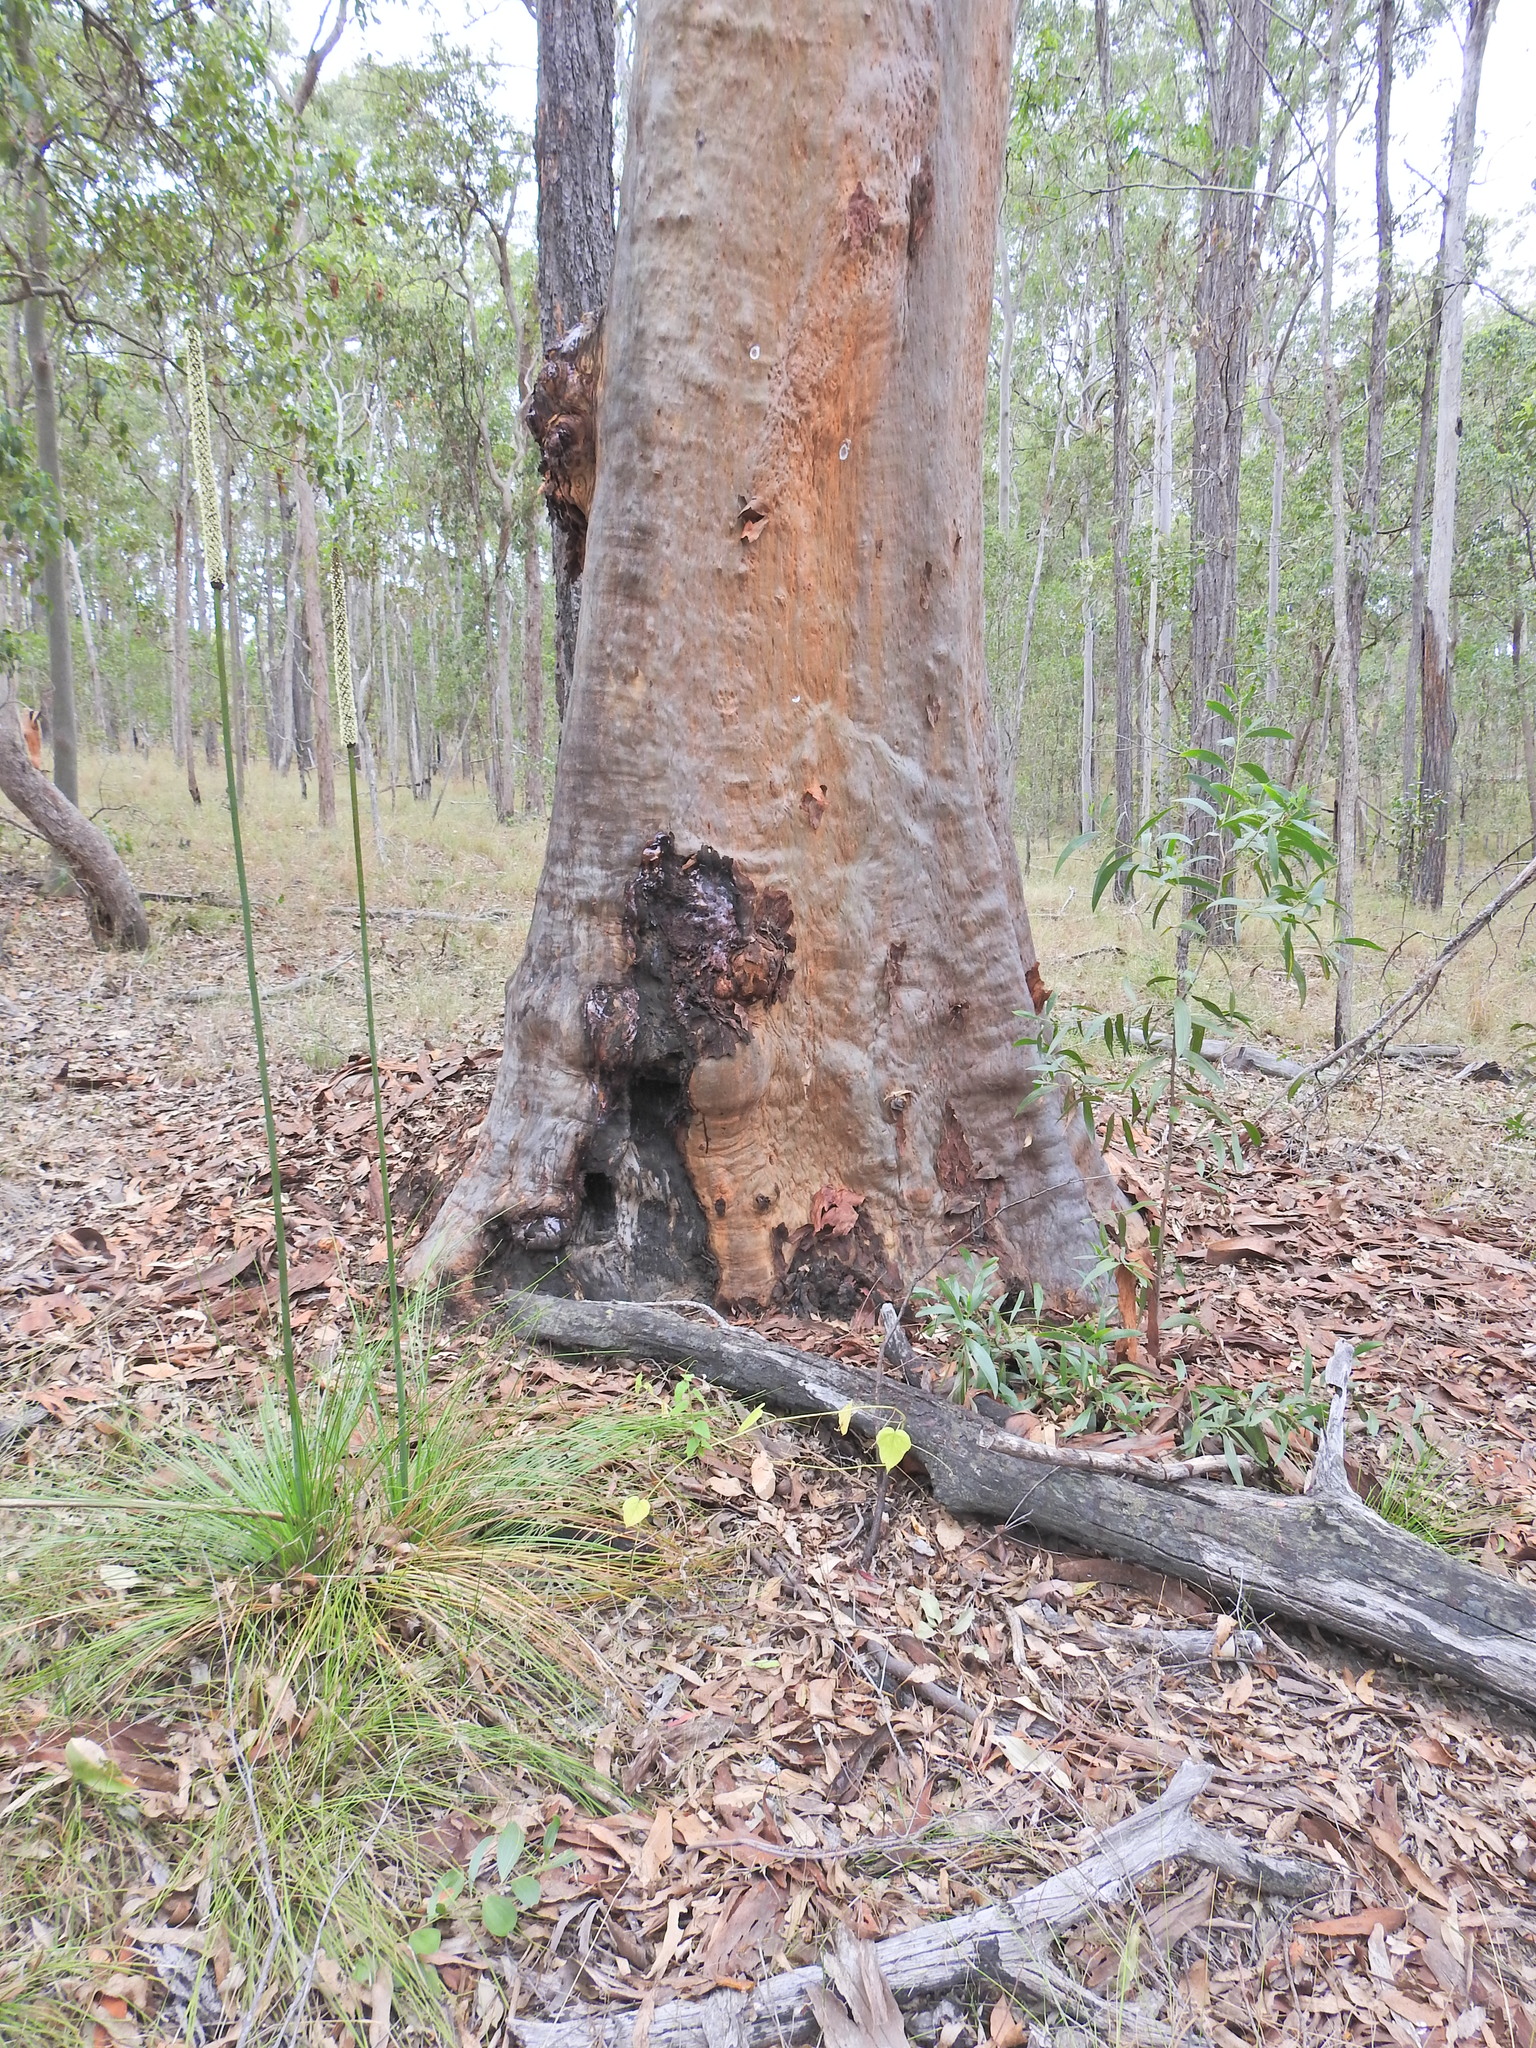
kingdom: Plantae
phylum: Tracheophyta
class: Magnoliopsida
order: Myrtales
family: Myrtaceae
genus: Corymbia
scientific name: Corymbia citriodora
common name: Lemonscented gum
